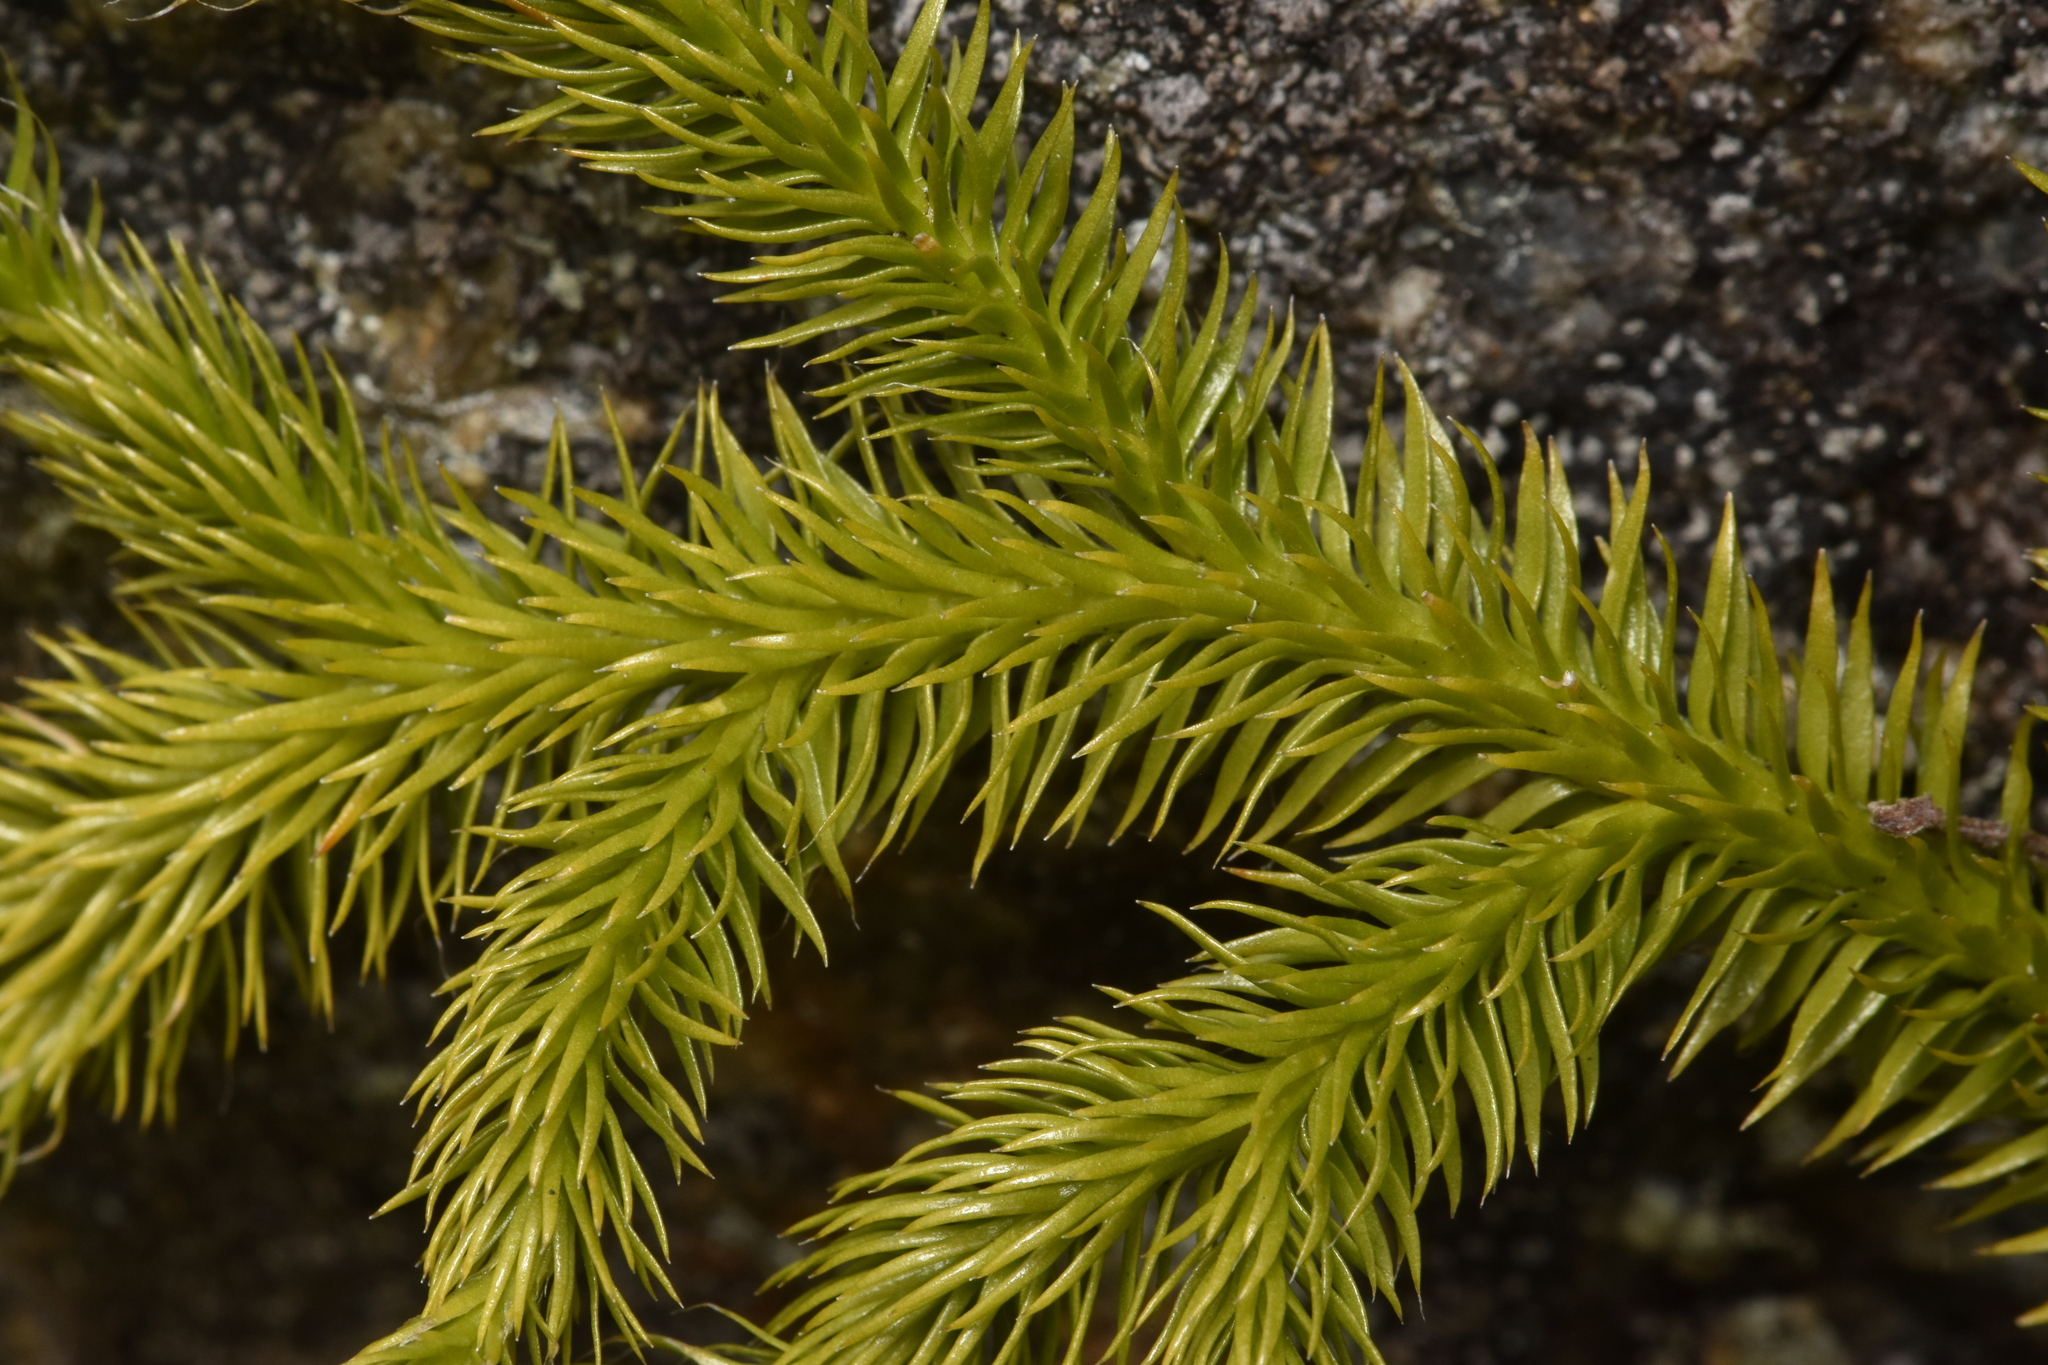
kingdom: Plantae
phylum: Tracheophyta
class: Lycopodiopsida
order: Lycopodiales
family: Lycopodiaceae
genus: Lycopodium
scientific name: Lycopodium clavatum
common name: Stag's-horn clubmoss
